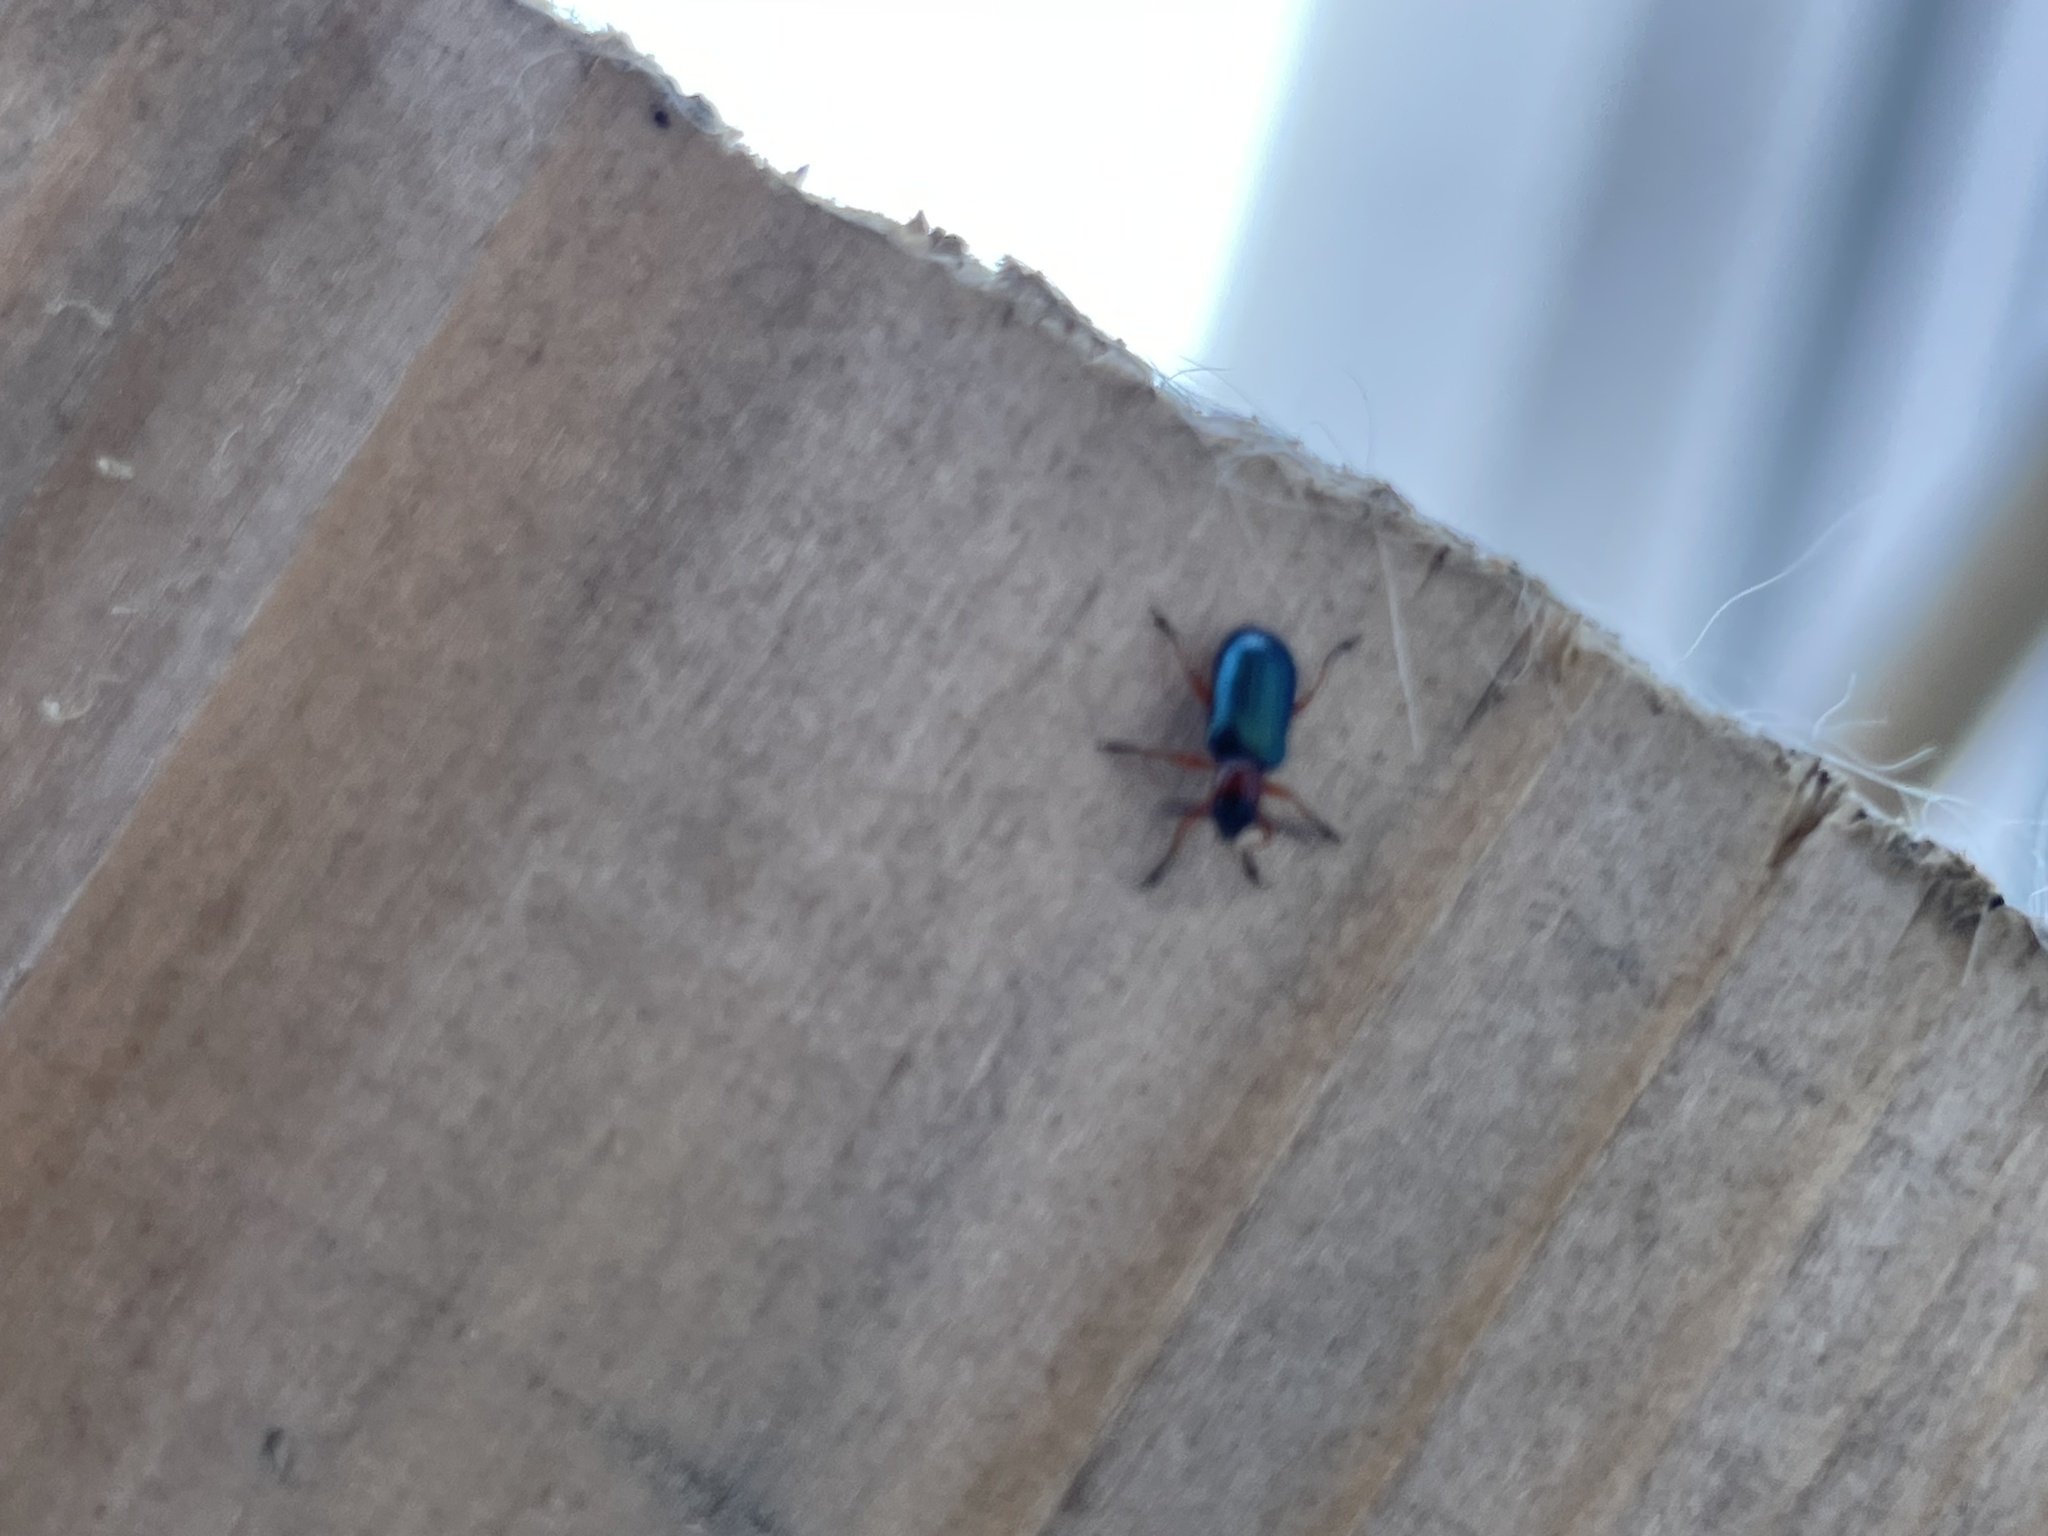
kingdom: Animalia
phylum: Arthropoda
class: Insecta
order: Coleoptera
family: Chrysomelidae
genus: Oulema
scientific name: Oulema
